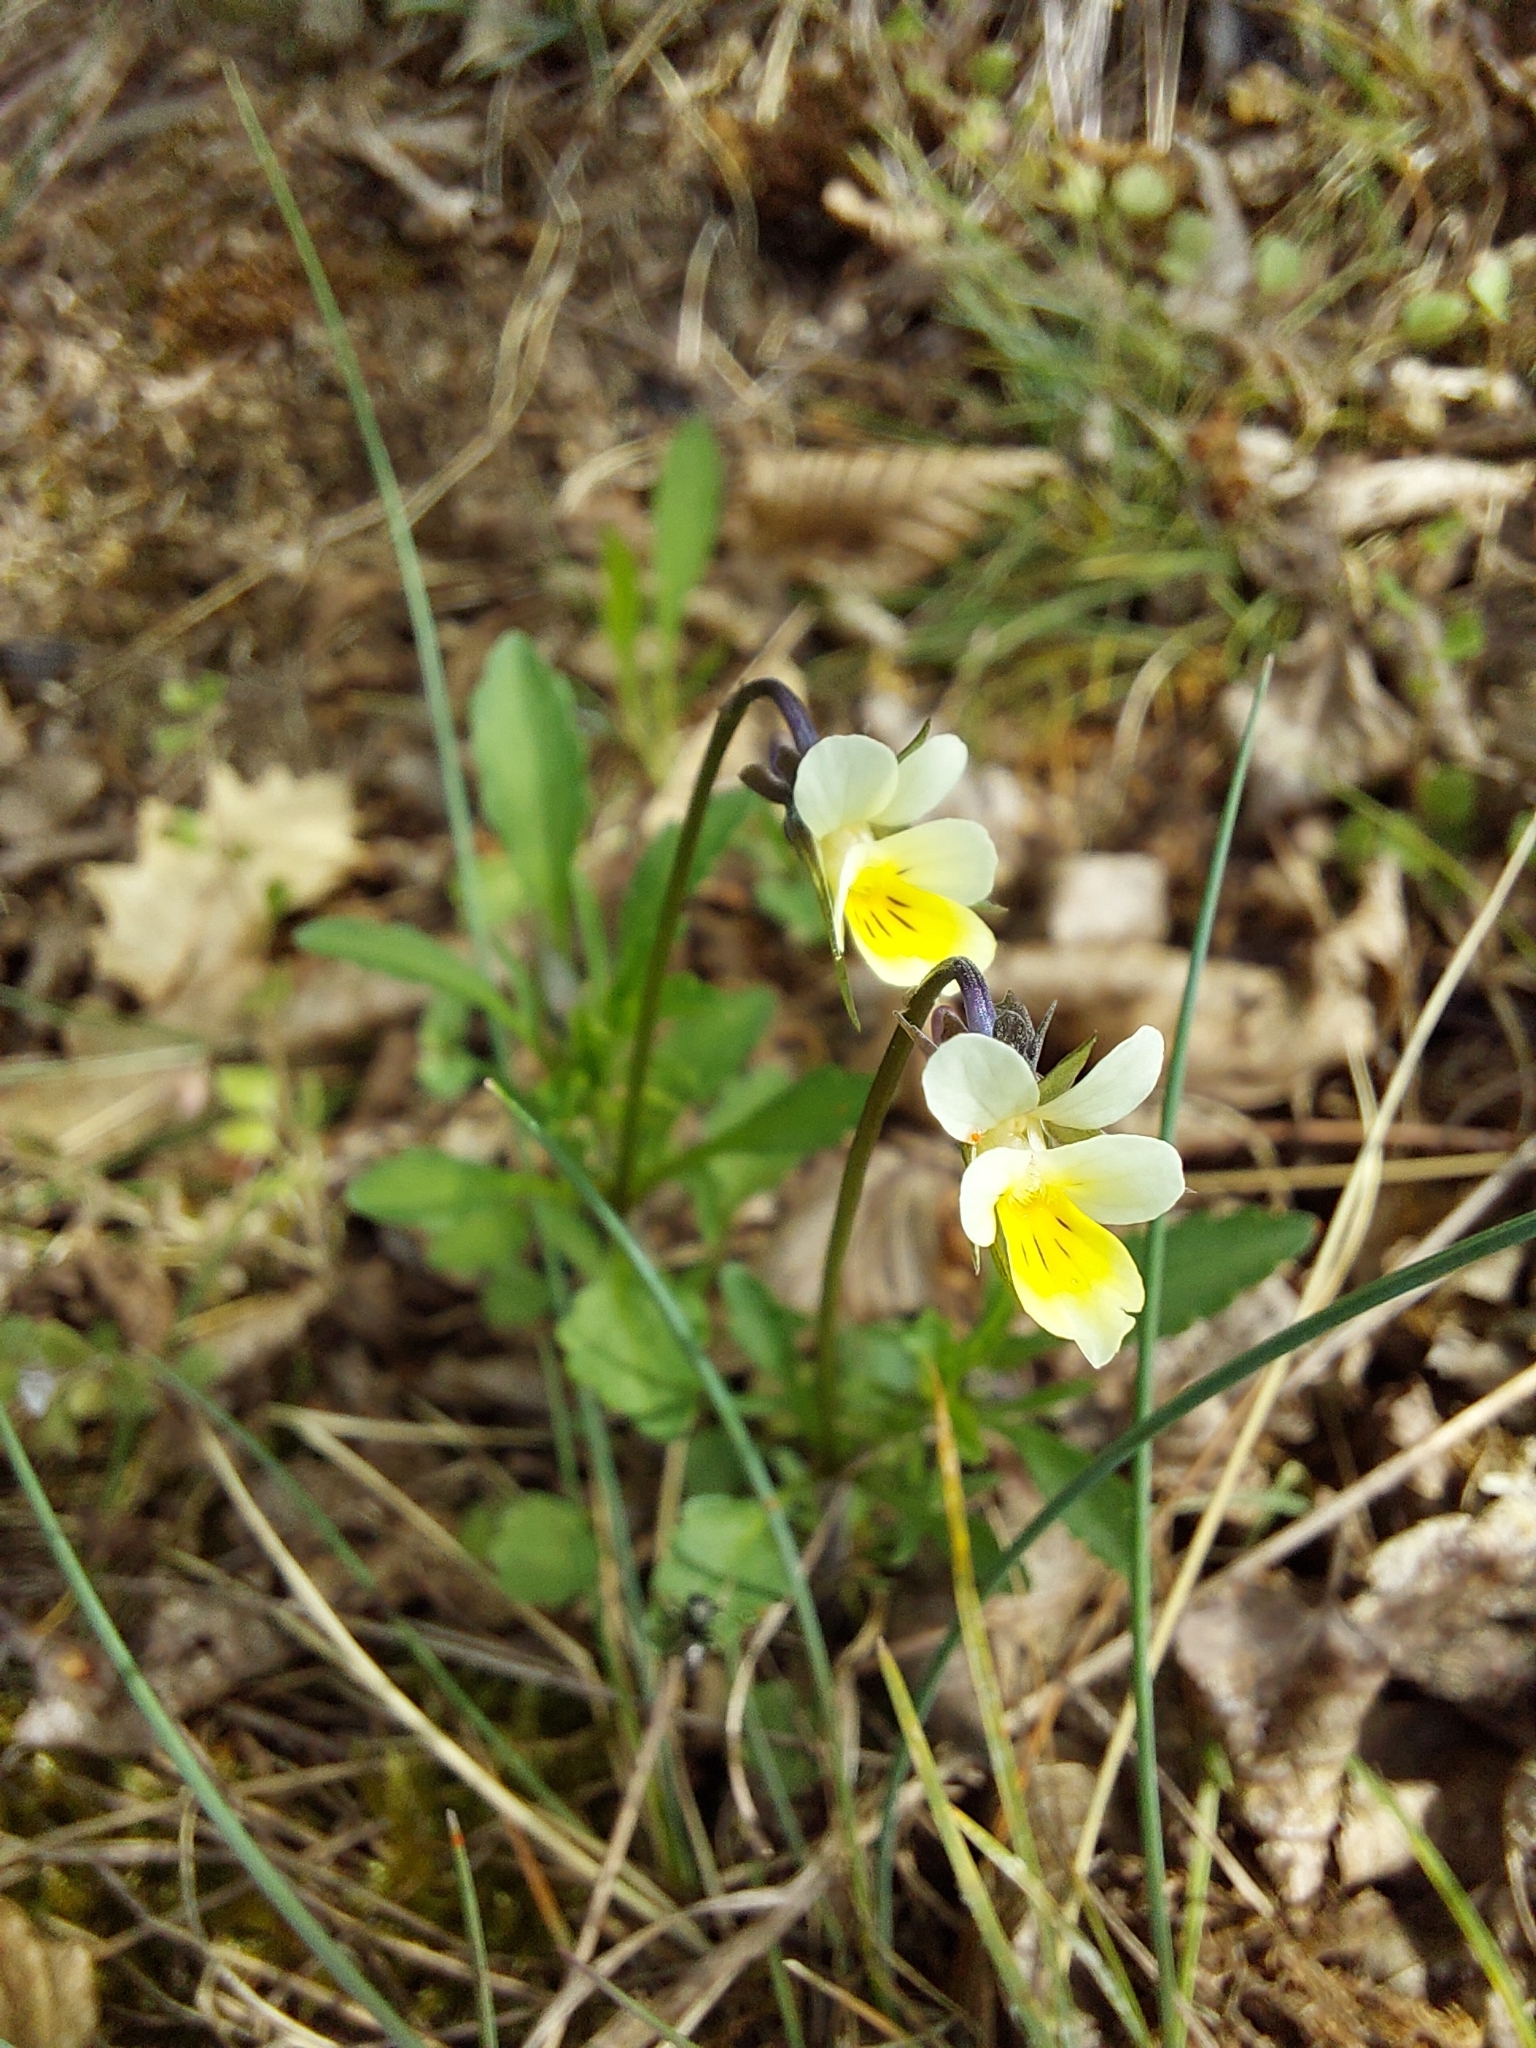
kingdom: Plantae
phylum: Tracheophyta
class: Magnoliopsida
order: Malpighiales
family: Violaceae
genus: Viola
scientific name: Viola arvensis
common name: Field pansy
